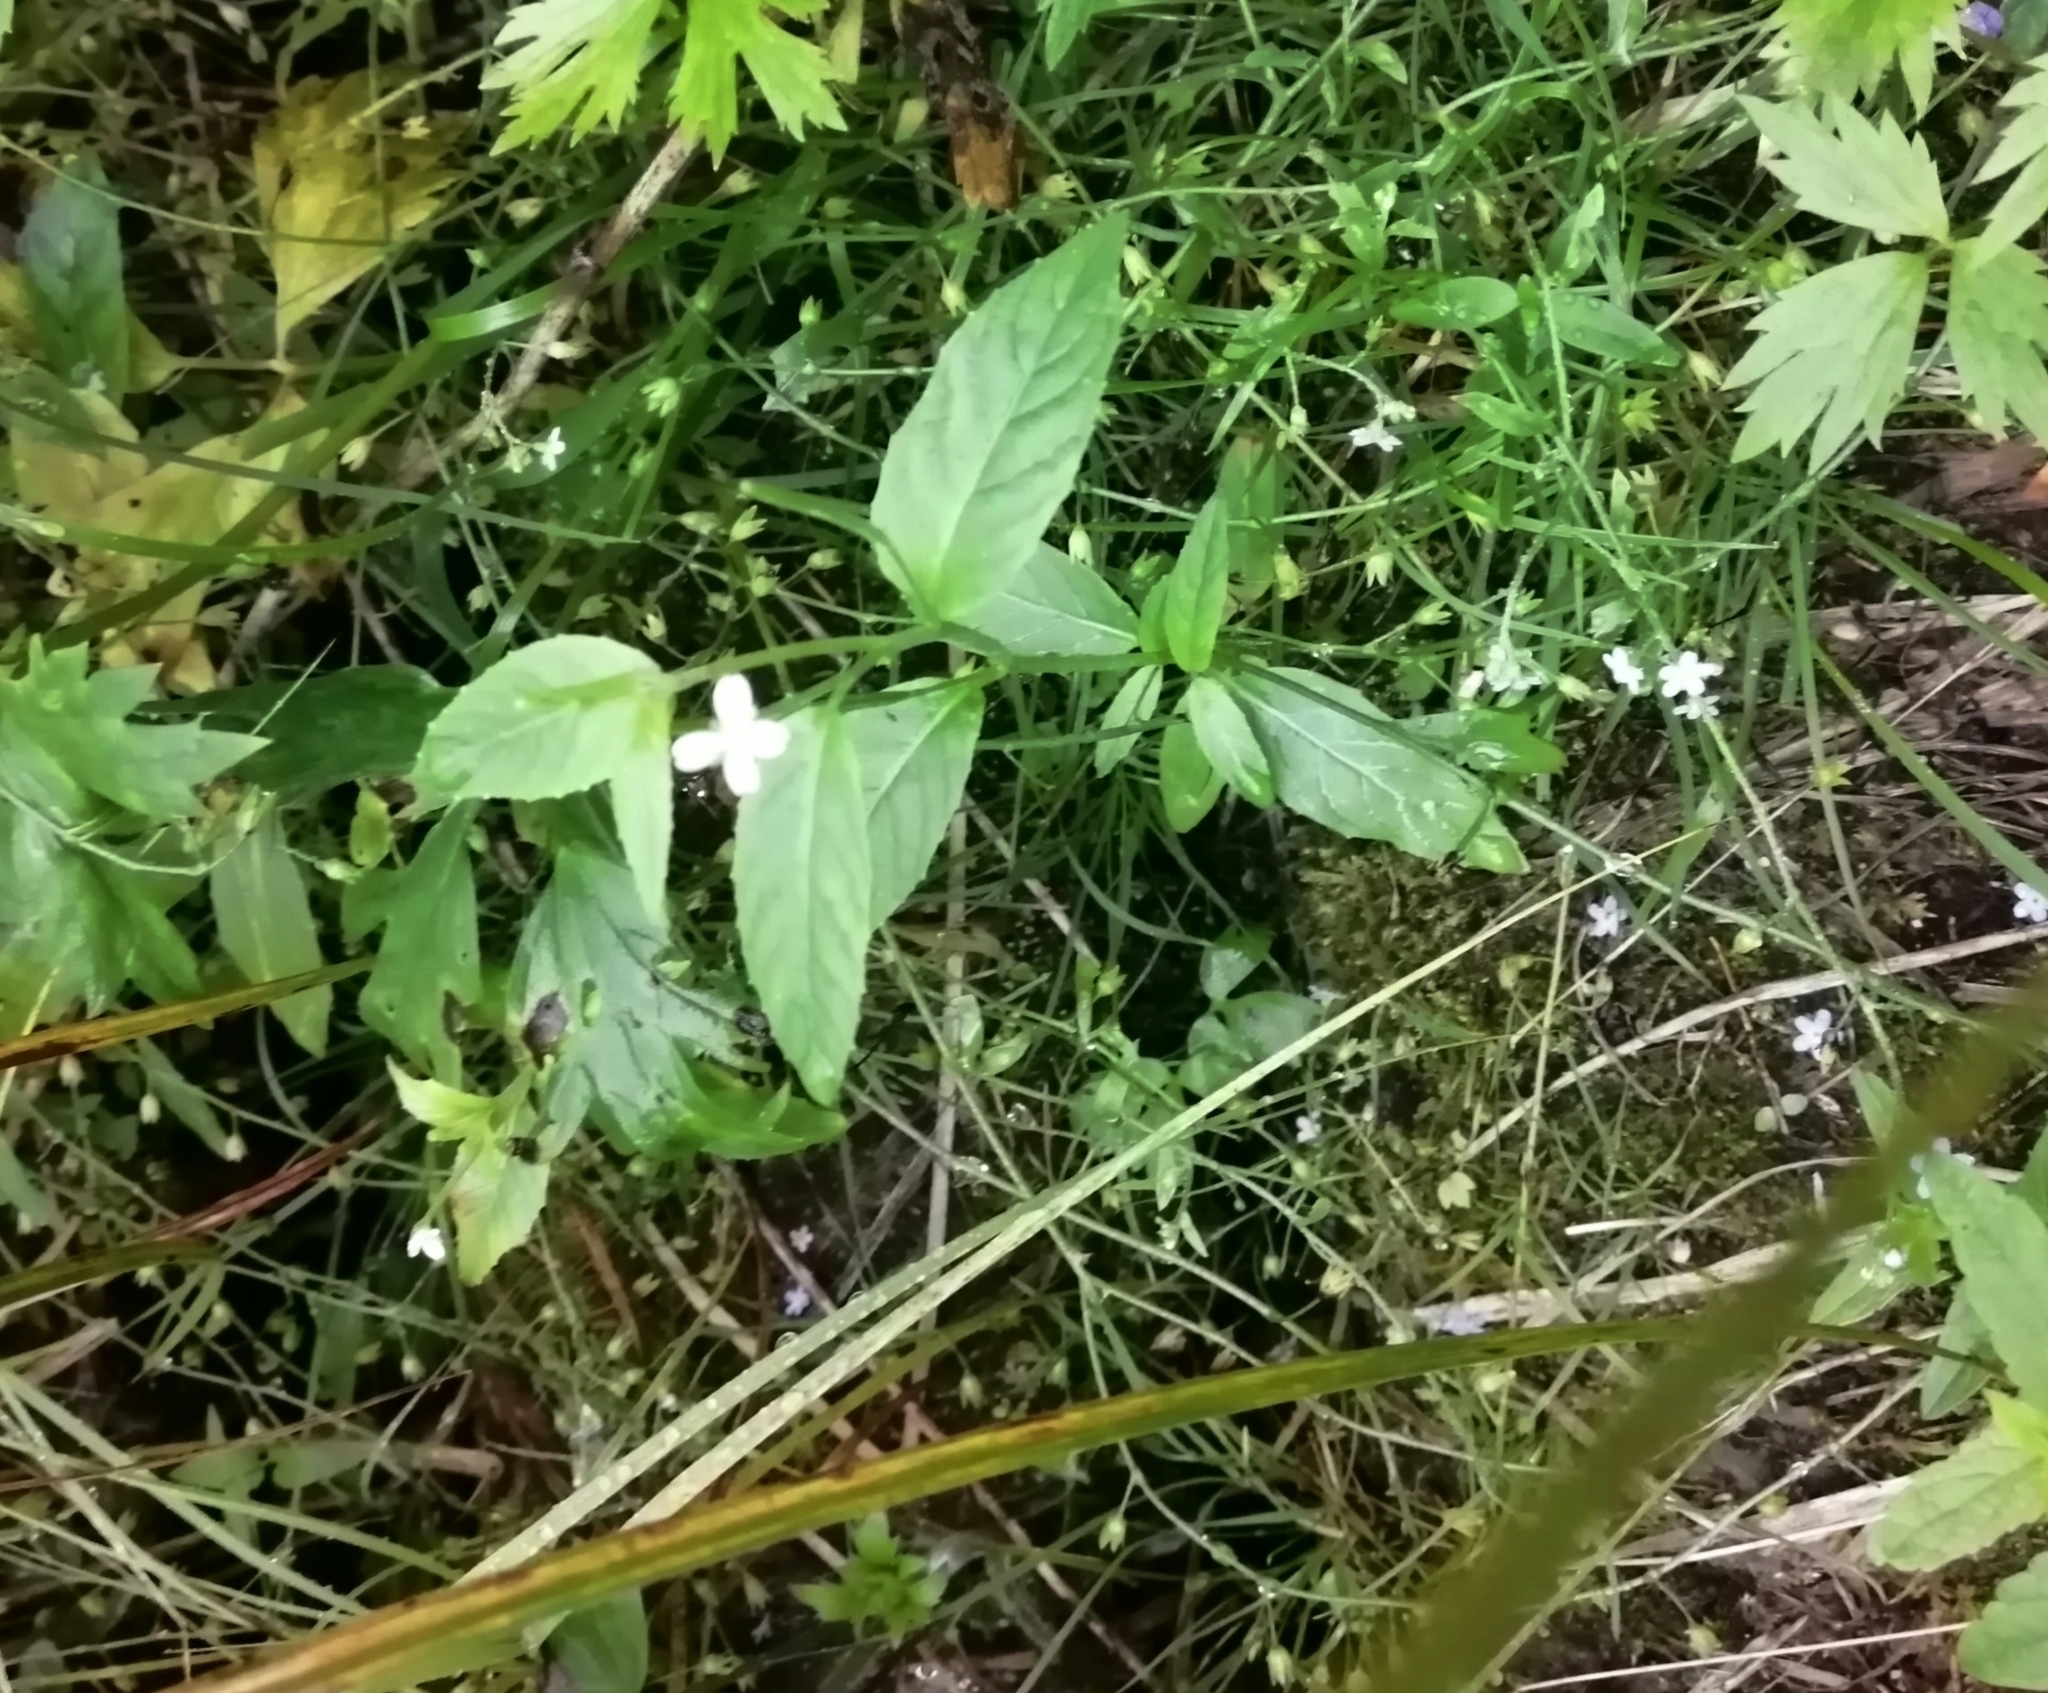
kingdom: Plantae
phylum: Tracheophyta
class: Magnoliopsida
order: Myrtales
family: Onagraceae
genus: Epilobium
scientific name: Epilobium pseudorubescens
